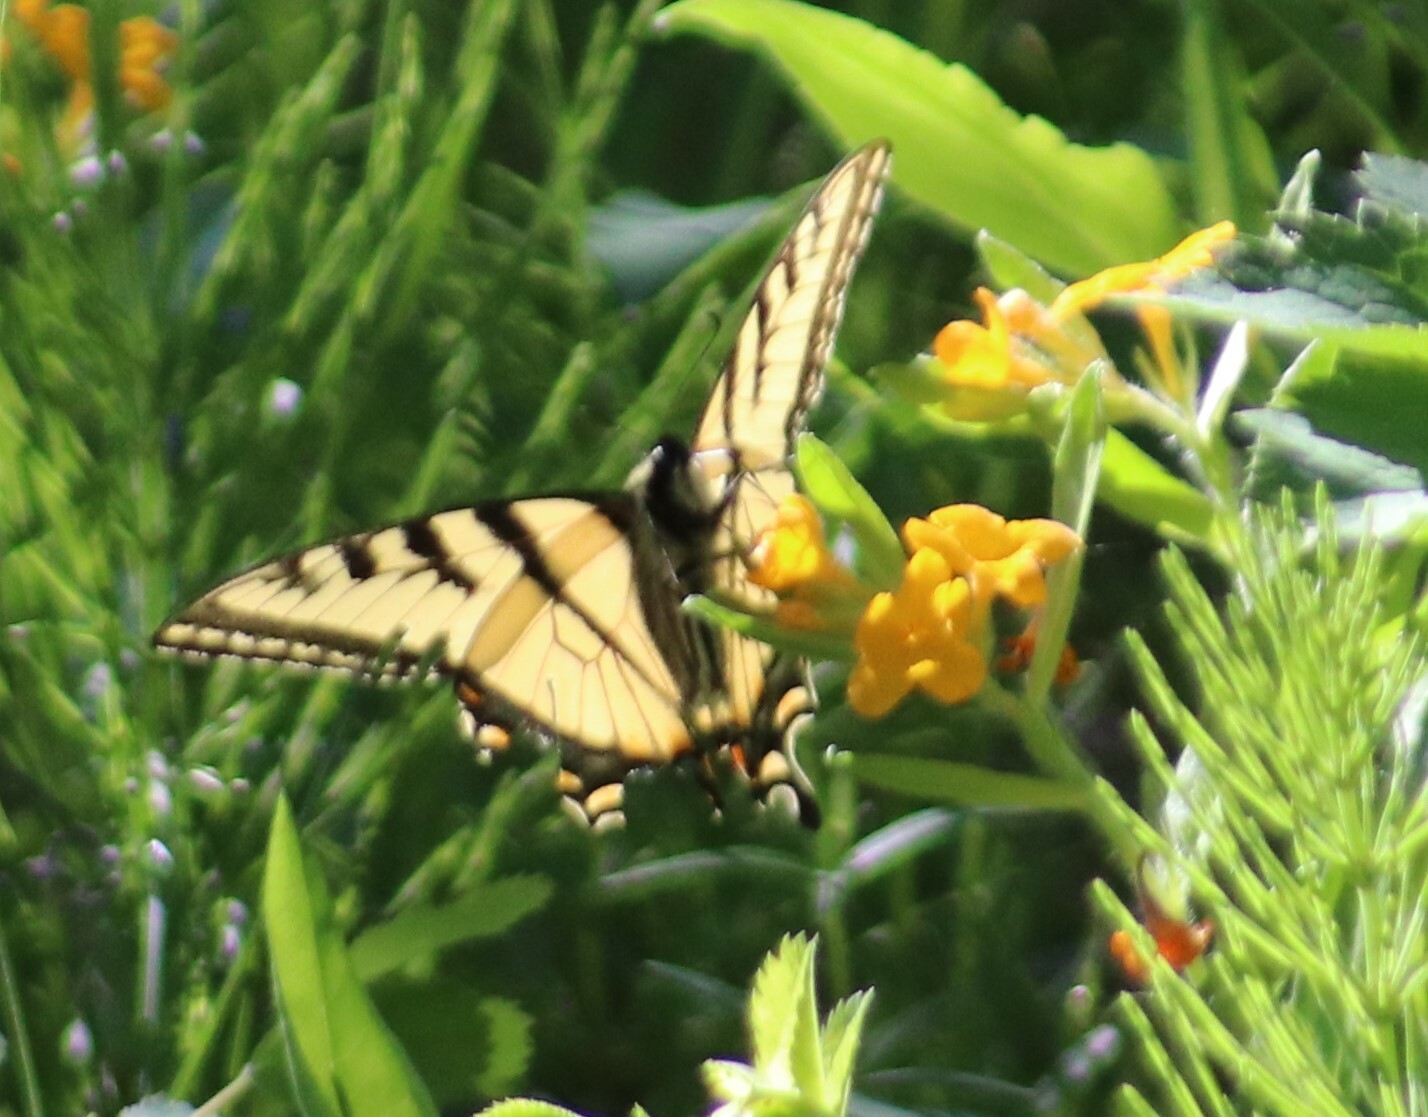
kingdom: Animalia
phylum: Arthropoda
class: Insecta
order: Lepidoptera
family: Papilionidae
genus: Papilio
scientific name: Papilio canadensis
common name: Canadian tiger swallowtail
